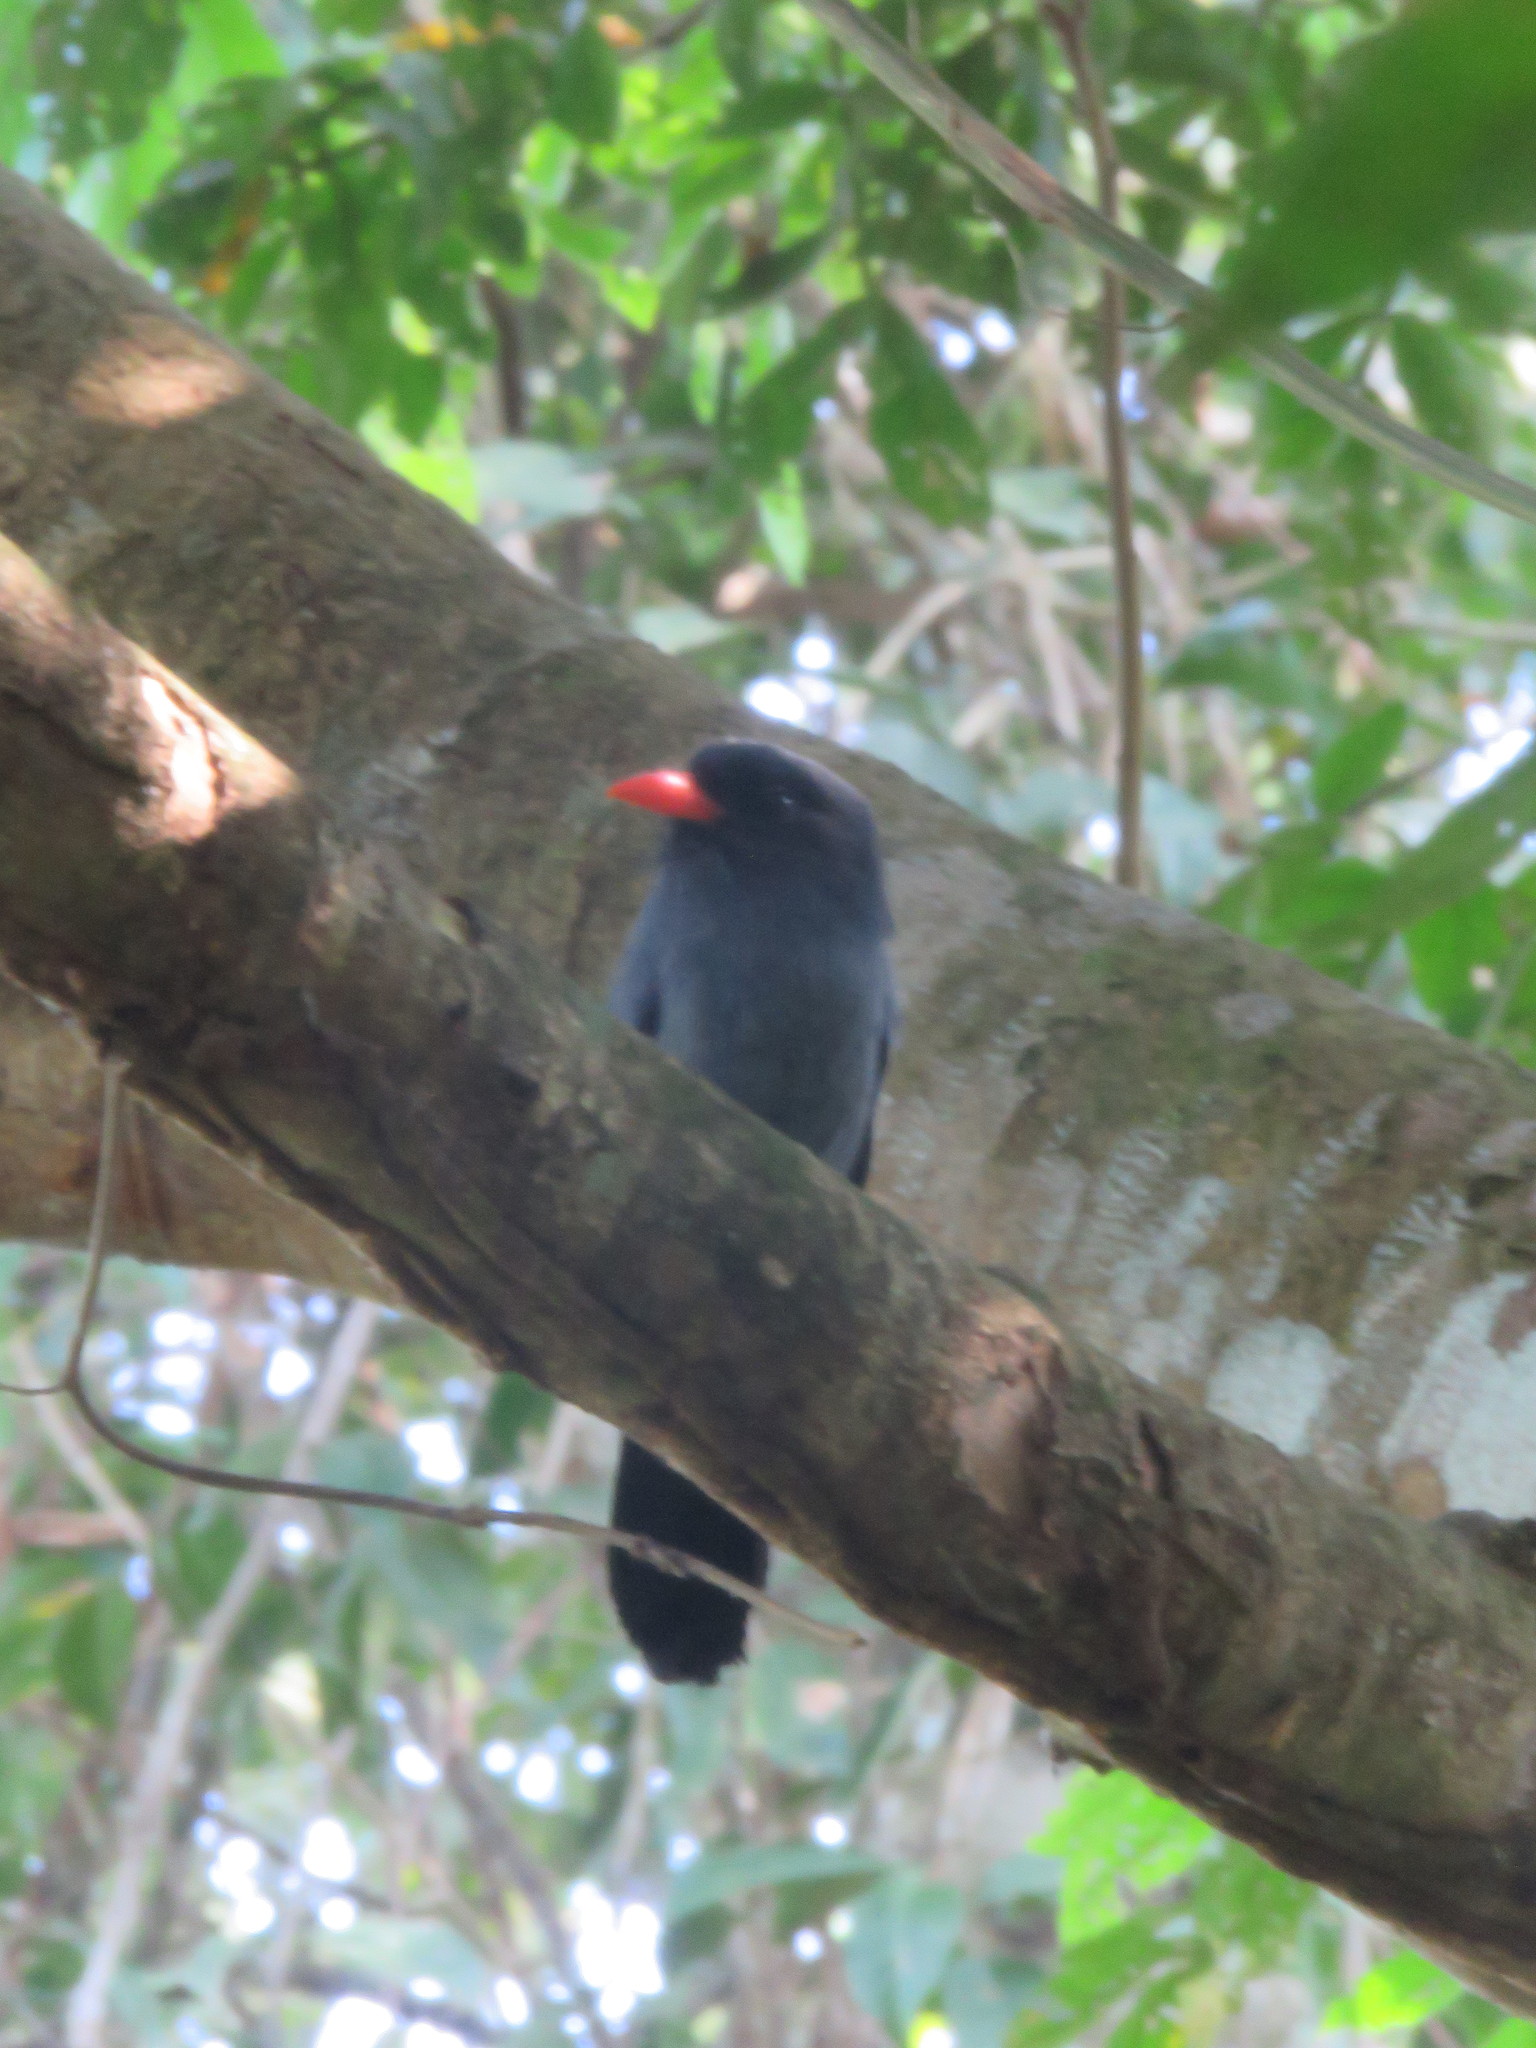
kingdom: Animalia
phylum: Chordata
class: Aves
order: Piciformes
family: Bucconidae
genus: Monasa
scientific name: Monasa nigrifrons
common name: Black-fronted nunbird
